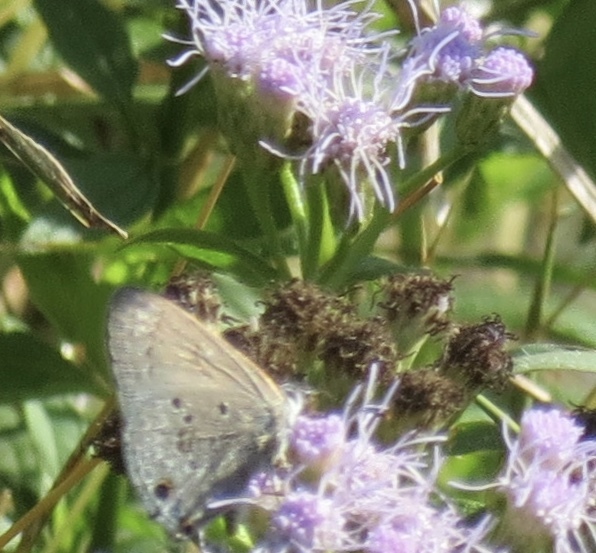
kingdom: Animalia
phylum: Arthropoda
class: Insecta
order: Lepidoptera
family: Lycaenidae
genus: Callicista
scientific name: Callicista columella
